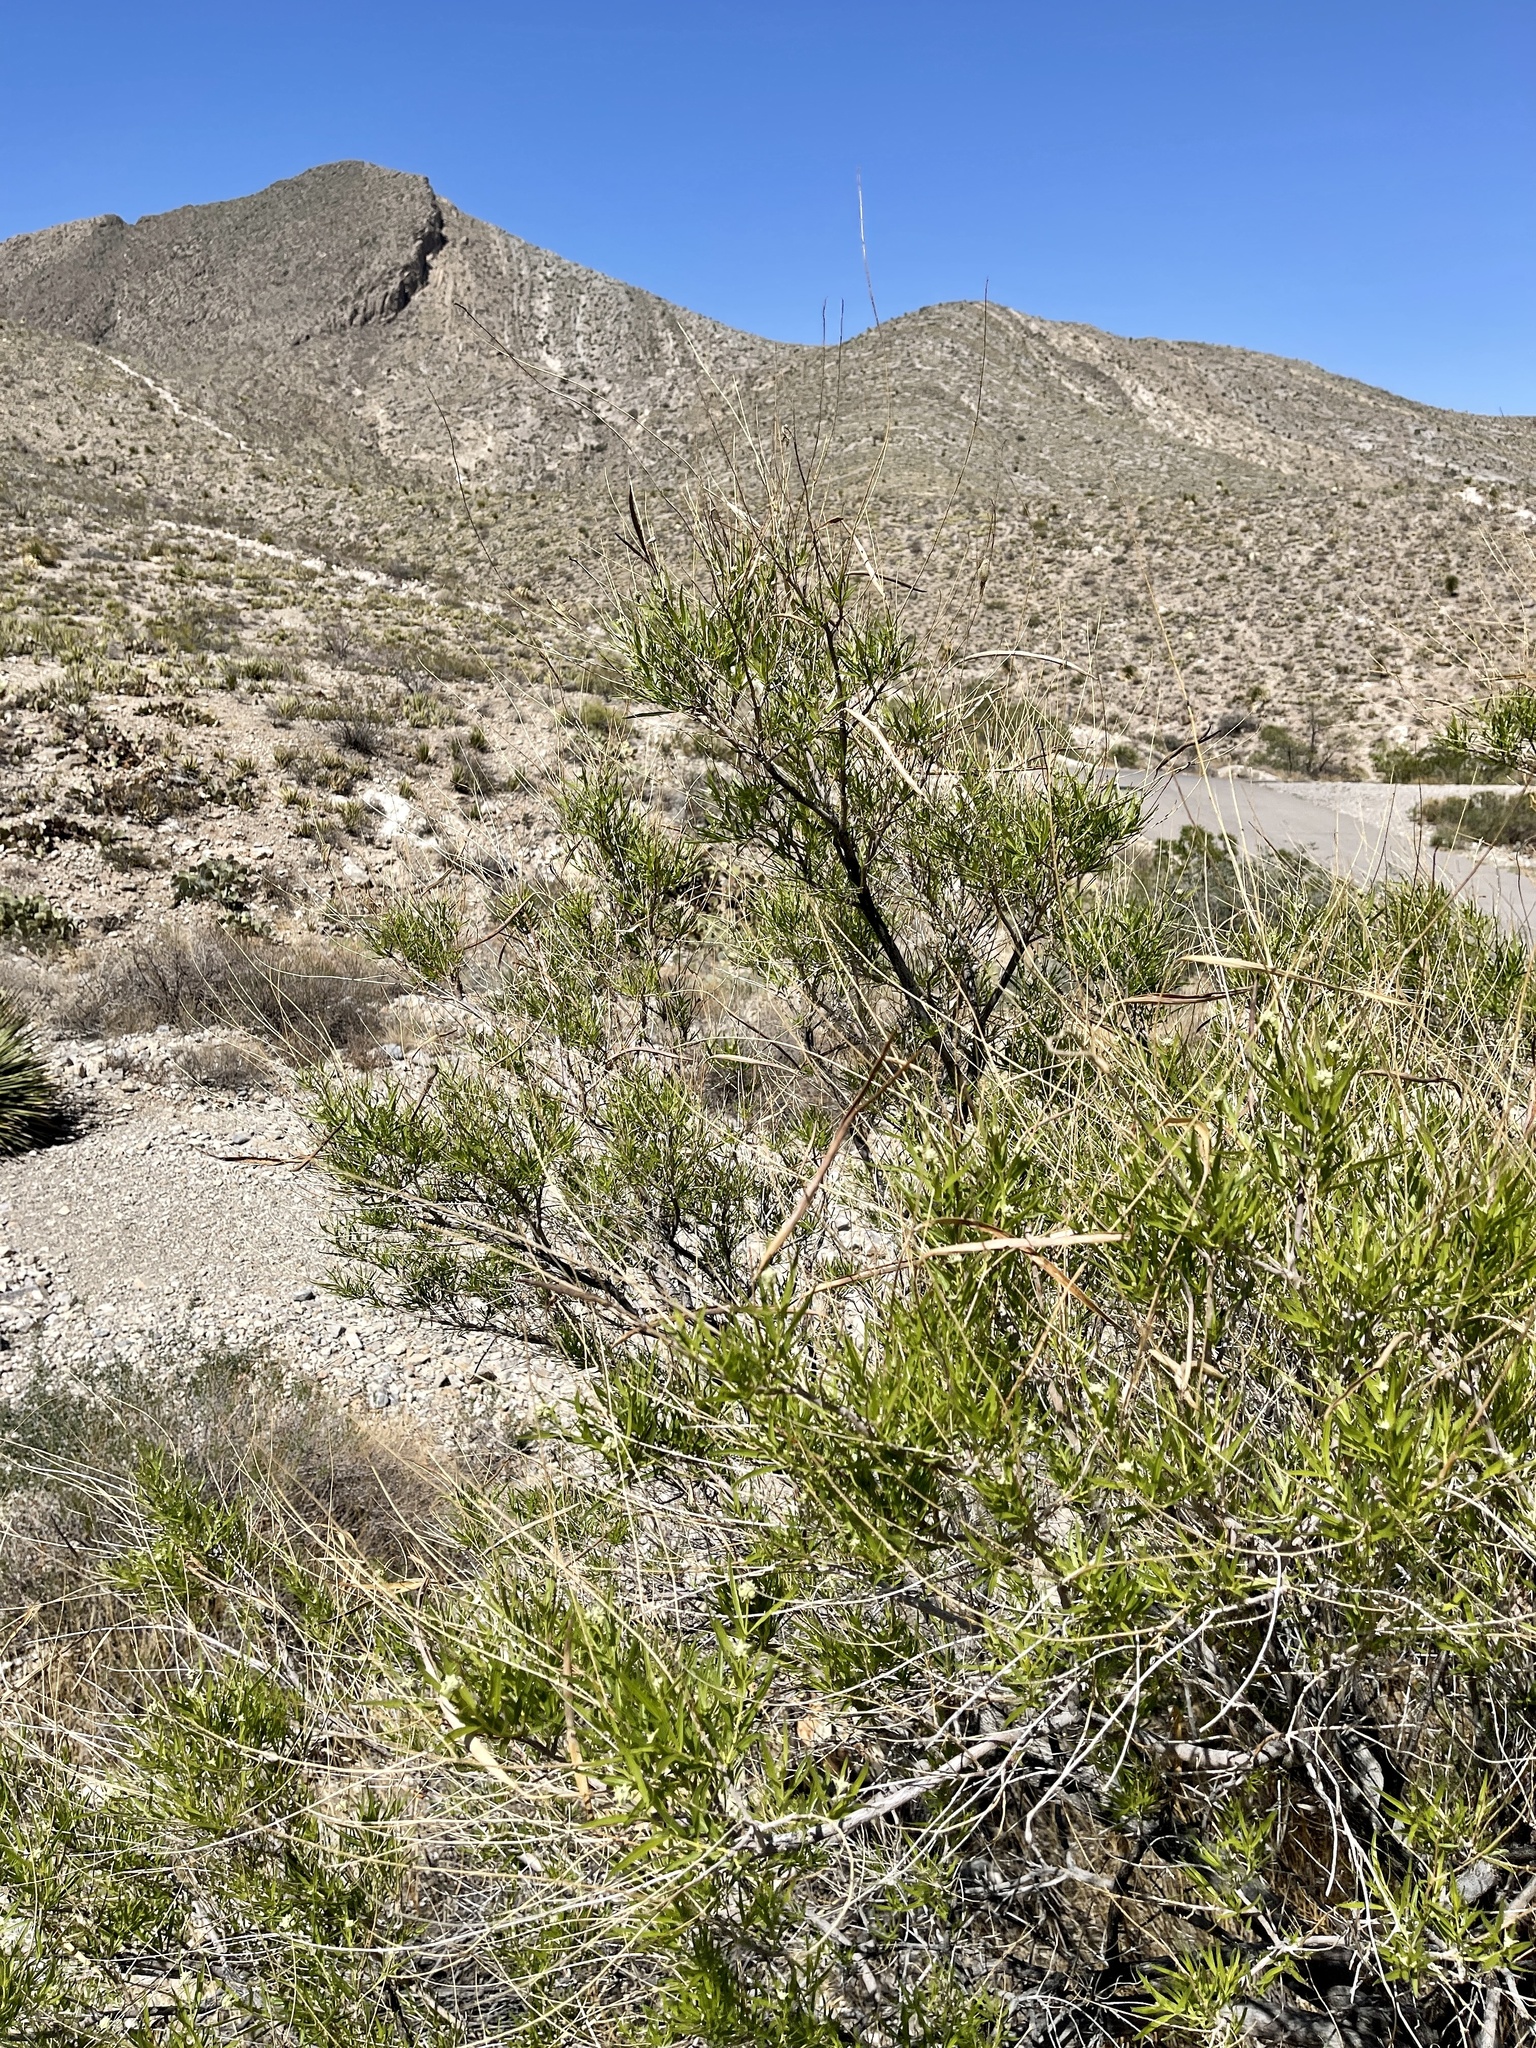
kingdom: Plantae
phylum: Tracheophyta
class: Magnoliopsida
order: Lamiales
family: Bignoniaceae
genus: Chilopsis
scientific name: Chilopsis linearis
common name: Desert-willow
